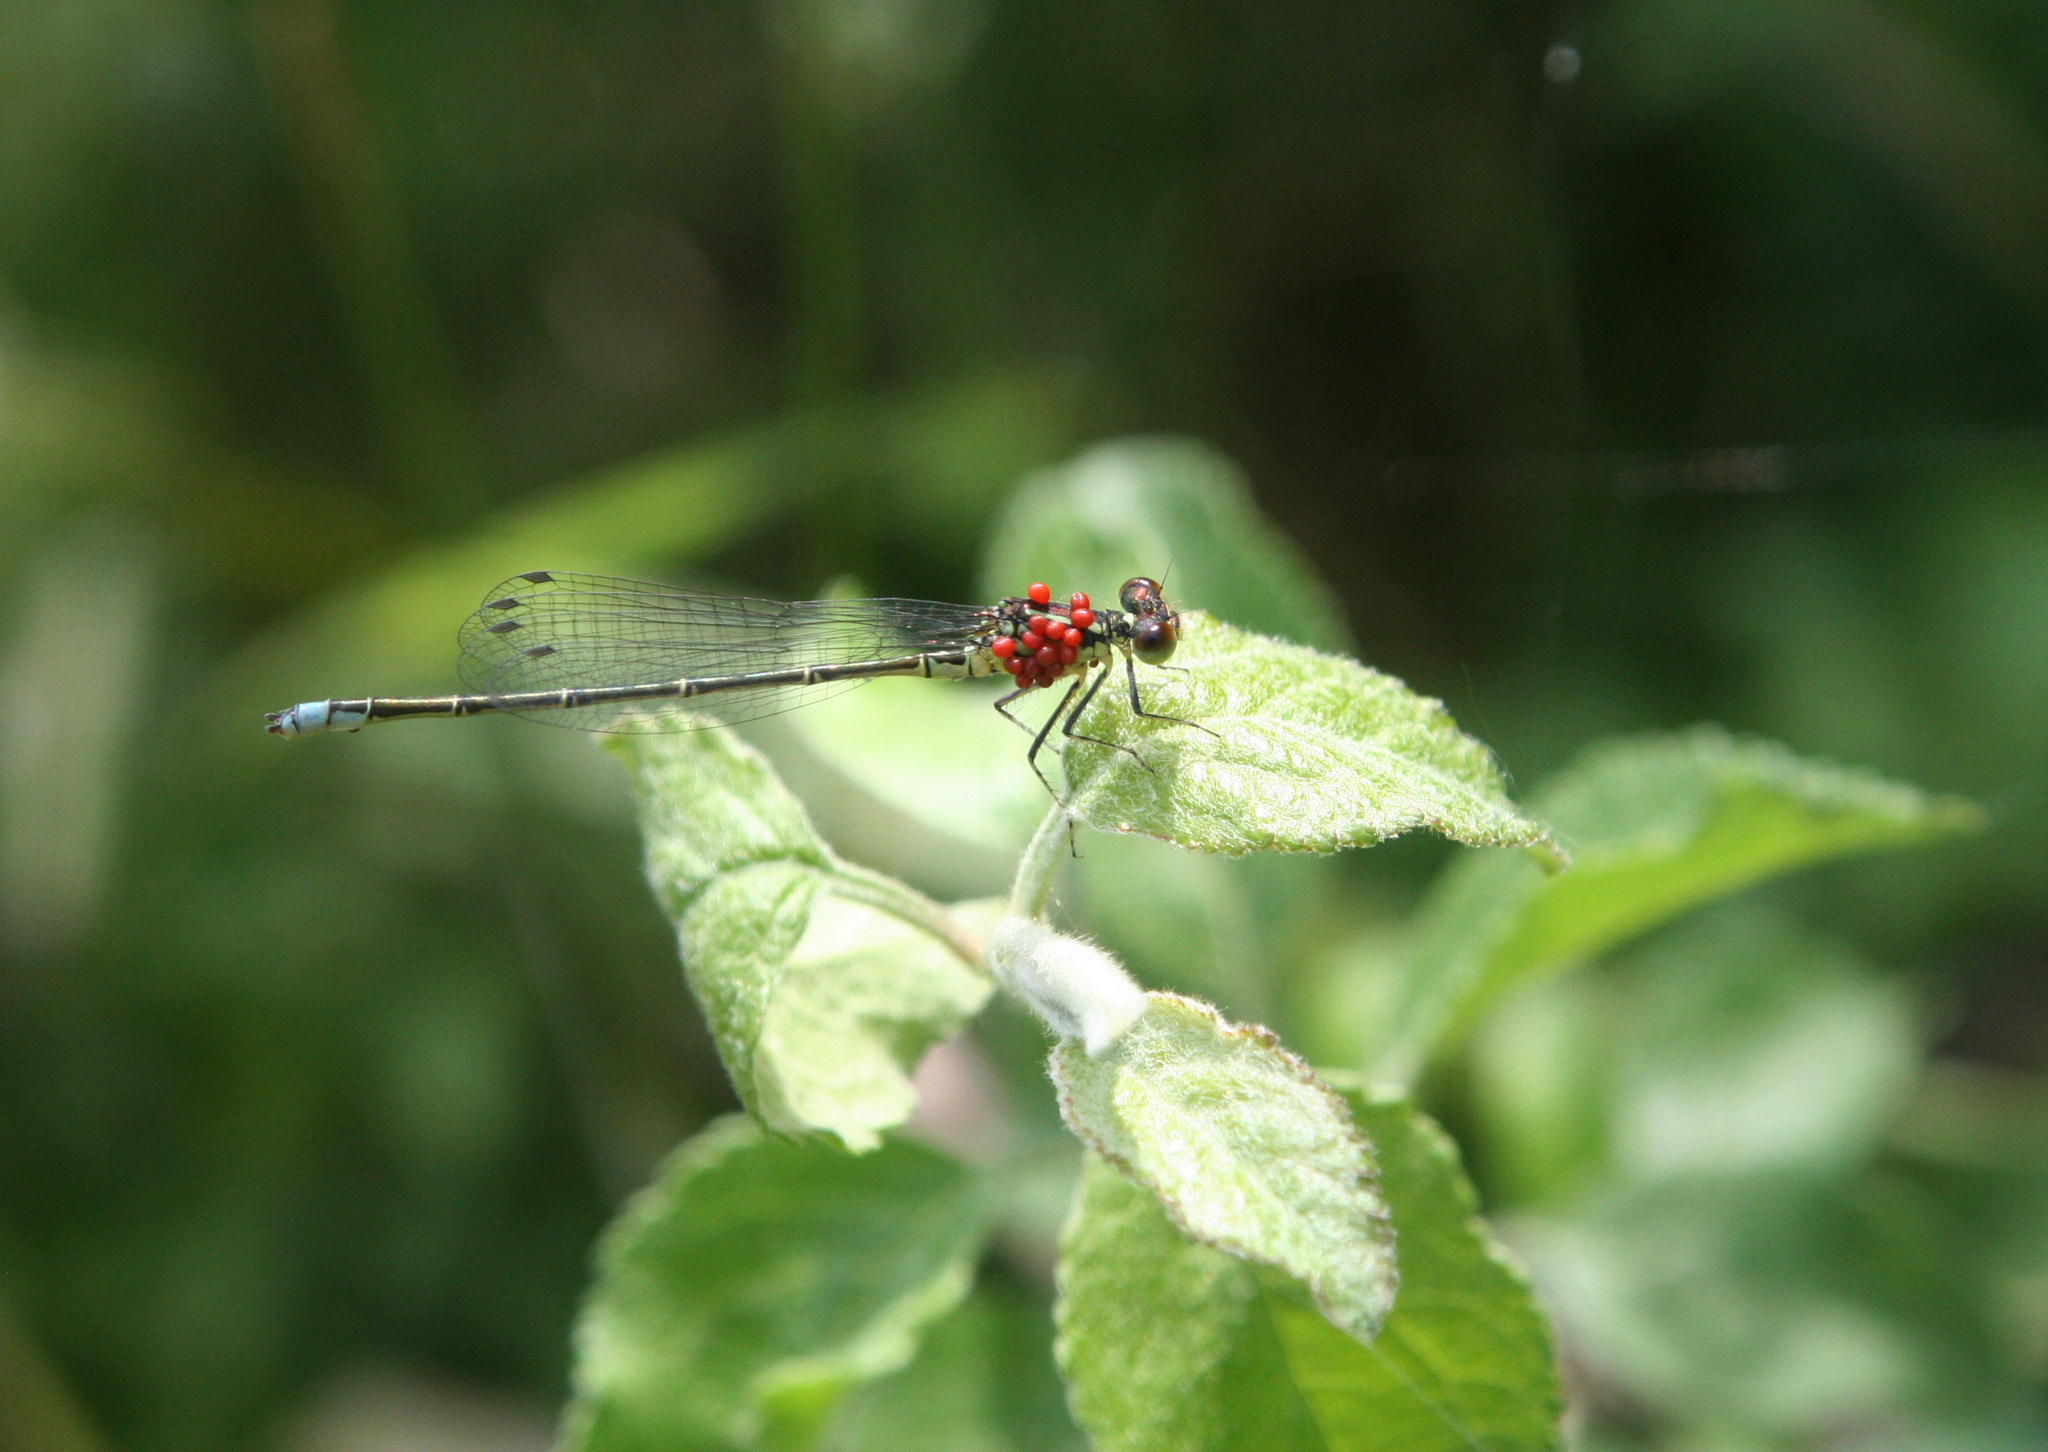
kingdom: Animalia
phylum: Arthropoda
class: Insecta
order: Odonata
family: Coenagrionidae
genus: Erythromma
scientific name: Erythromma viridulum
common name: Small red-eyed damselfly
